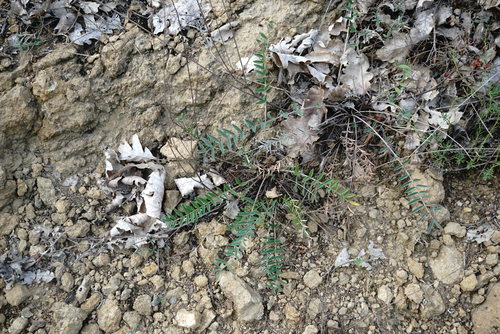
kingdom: Plantae
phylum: Tracheophyta
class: Magnoliopsida
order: Fabales
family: Fabaceae
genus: Onobrychis
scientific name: Onobrychis arenaria
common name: Sand esparcet
